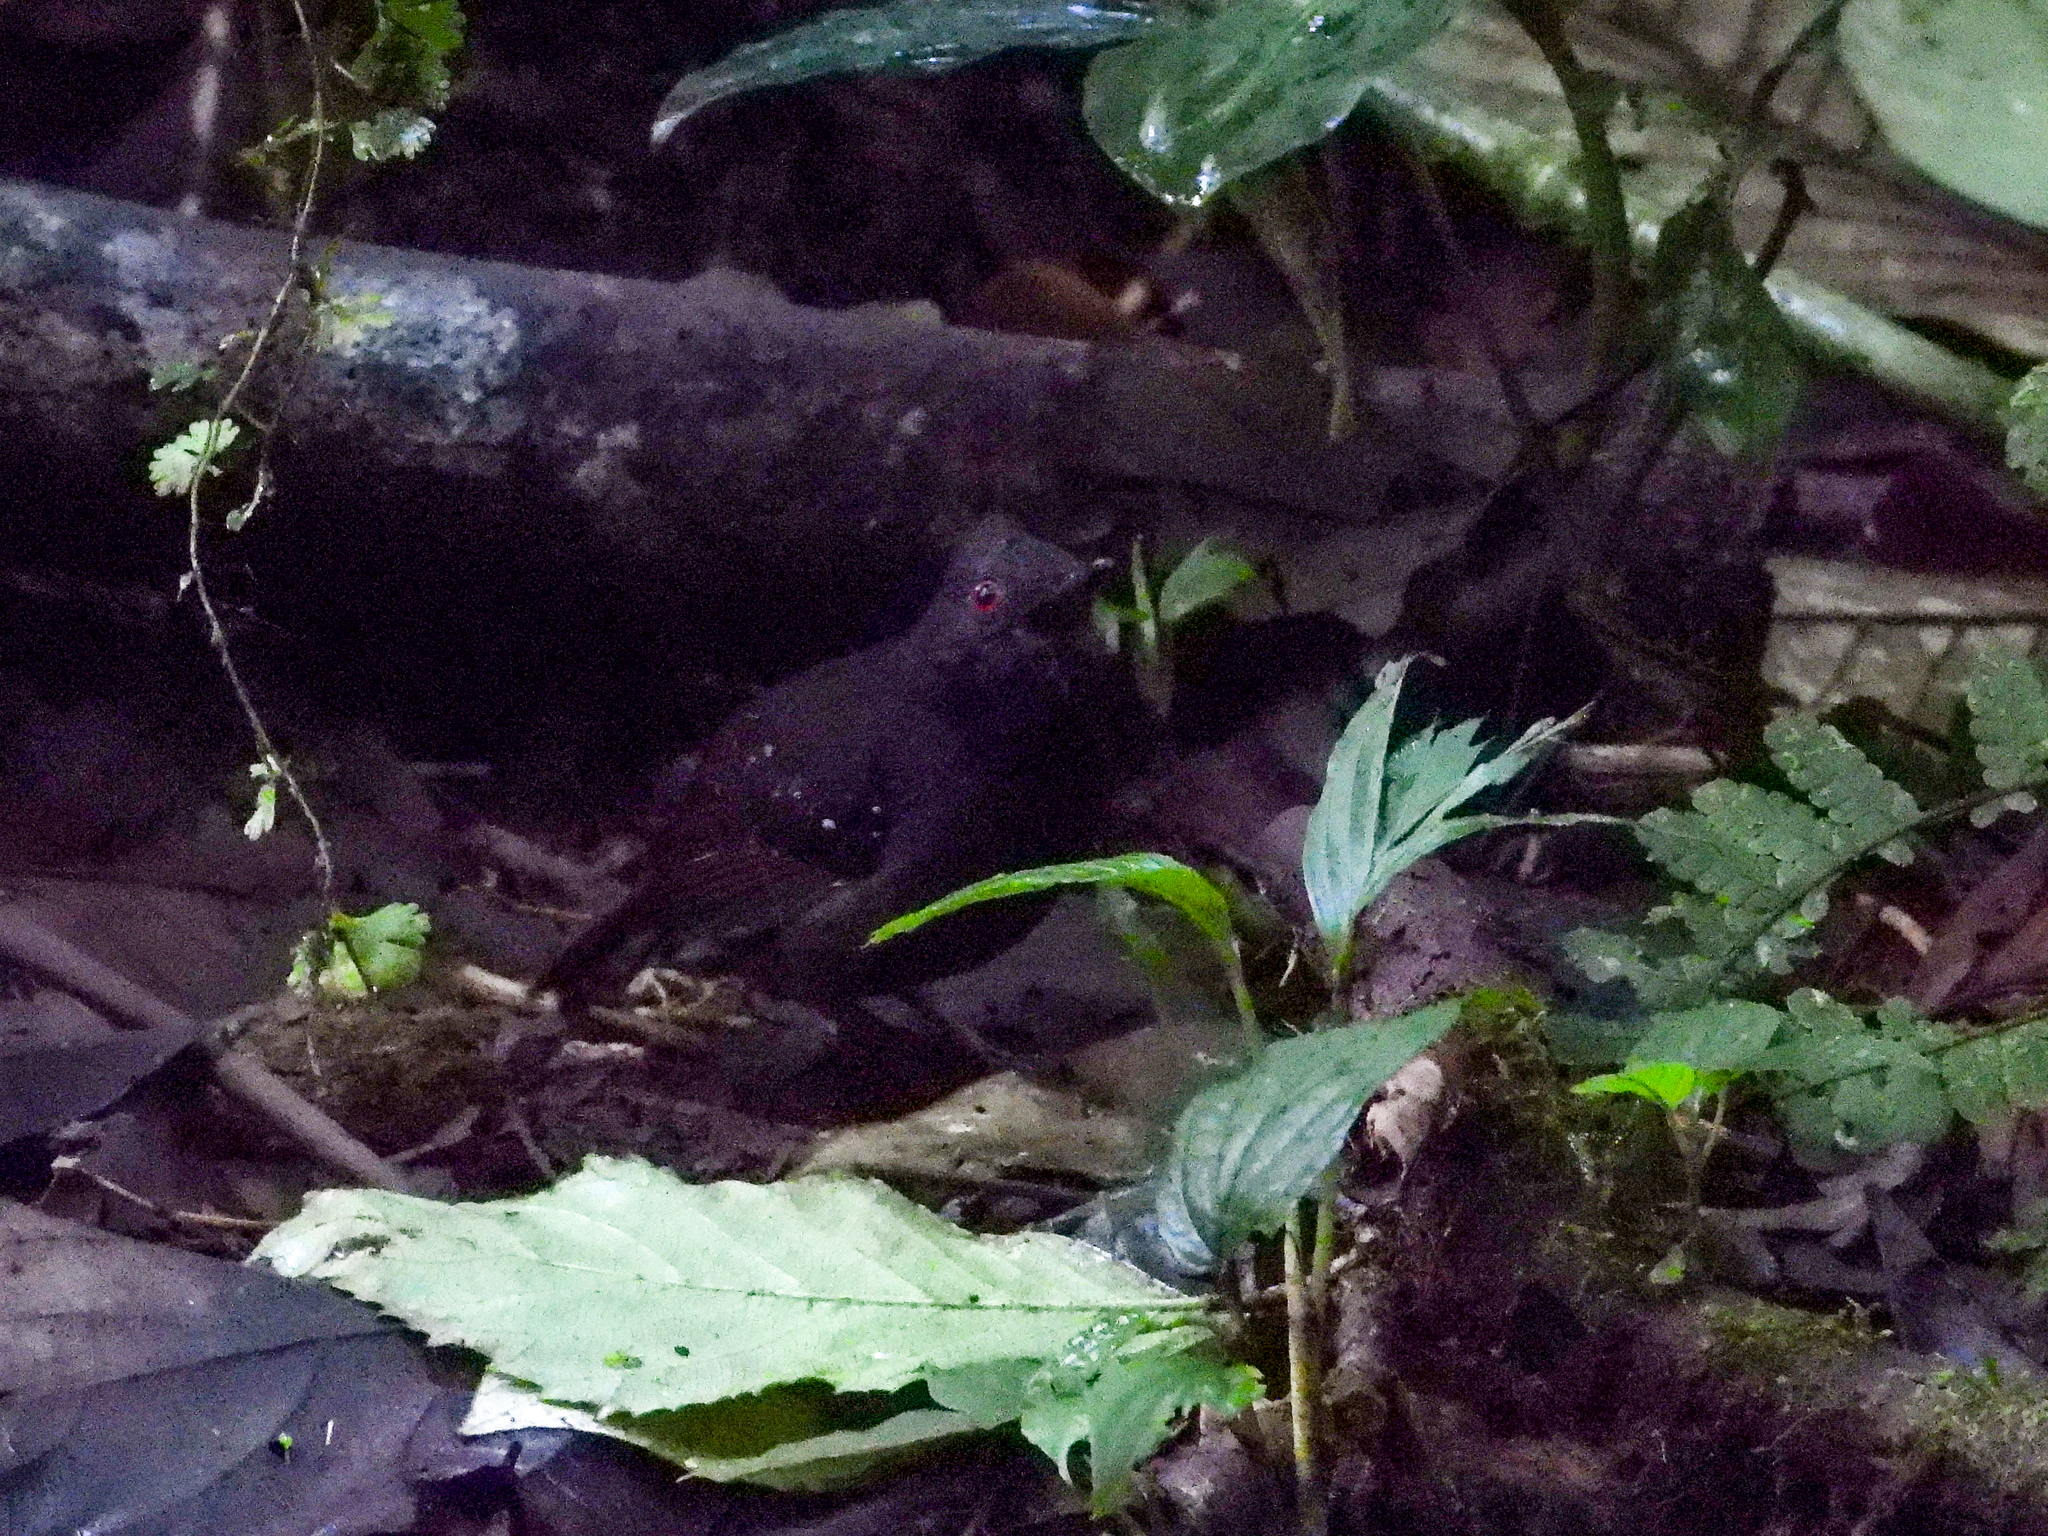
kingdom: Animalia
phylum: Chordata
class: Aves
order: Passeriformes
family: Thamnophilidae
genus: Sipia
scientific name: Sipia laemosticta
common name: Dull-mantled antbird
